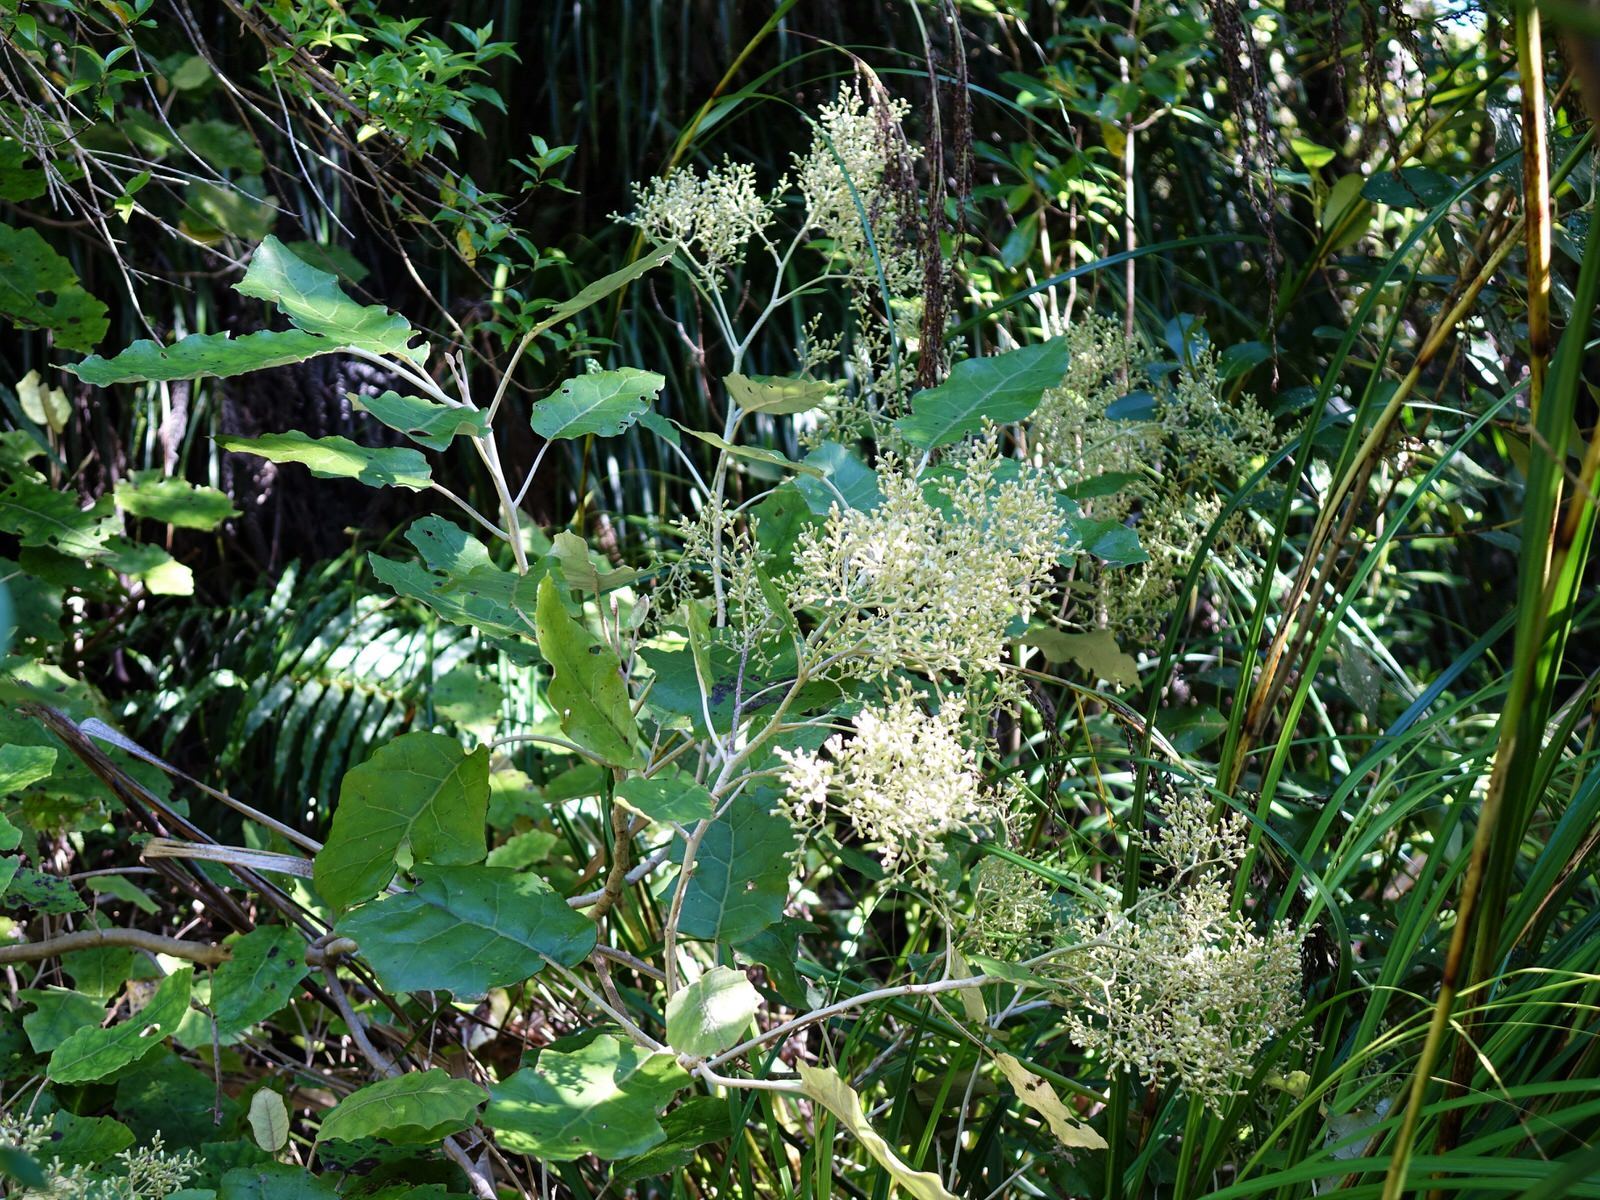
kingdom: Plantae
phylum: Tracheophyta
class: Magnoliopsida
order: Asterales
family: Asteraceae
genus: Brachyglottis
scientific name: Brachyglottis repanda
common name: Hedge ragwort
